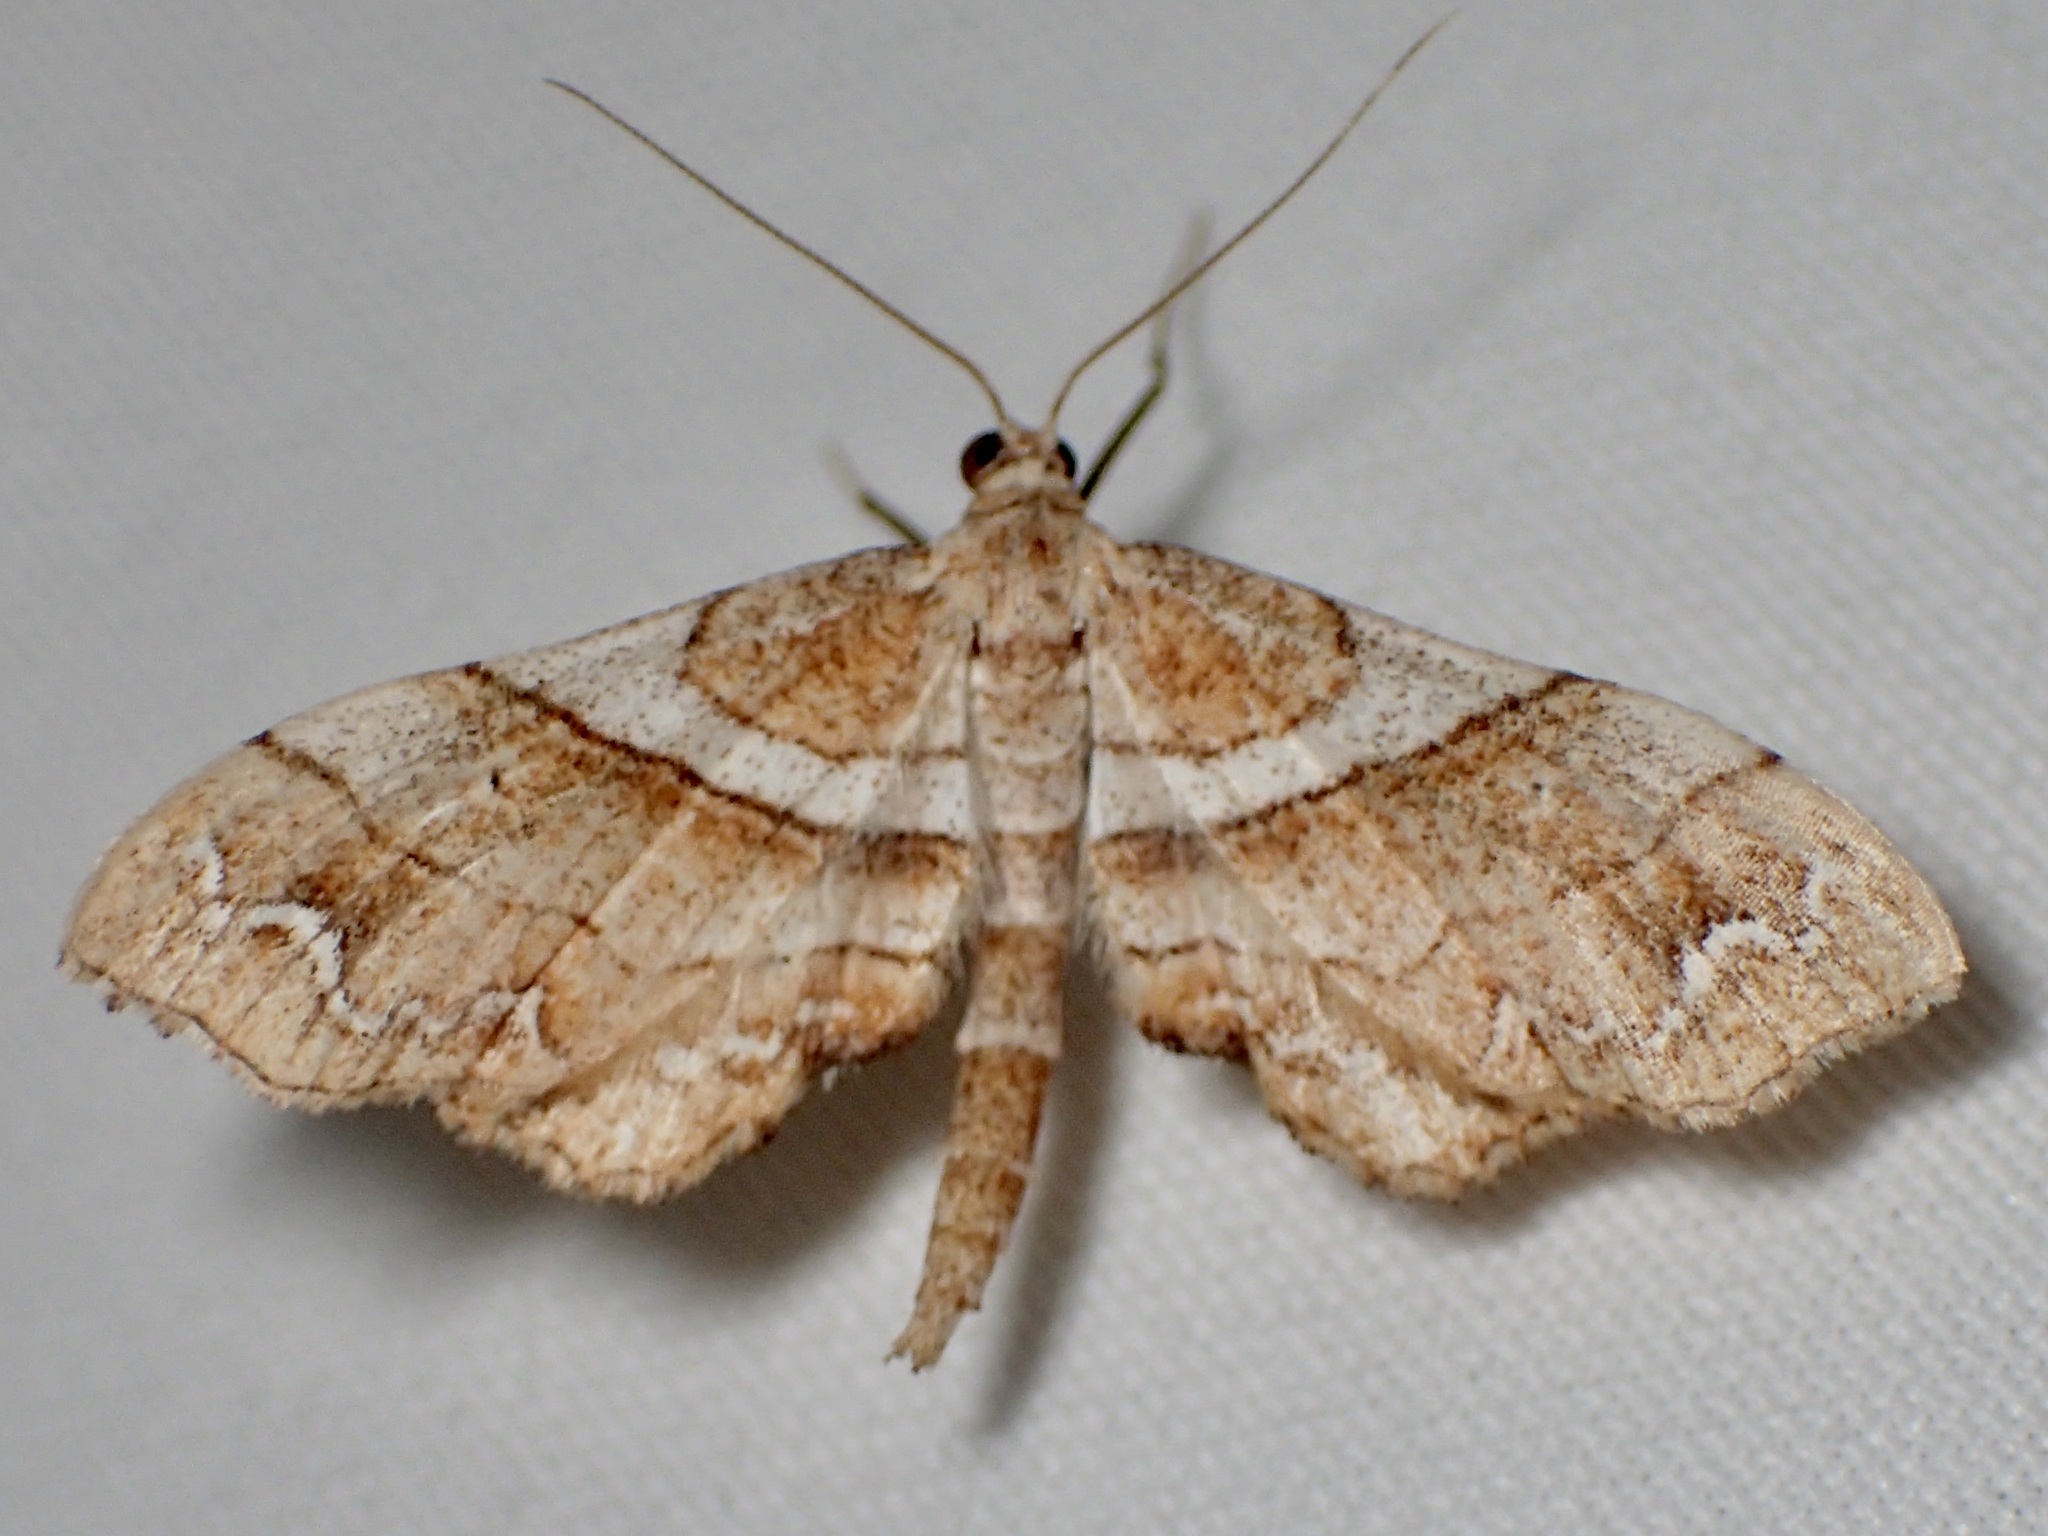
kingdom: Animalia
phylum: Arthropoda
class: Insecta
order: Lepidoptera
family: Geometridae
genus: Odontoptila
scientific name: Odontoptila obrimo
